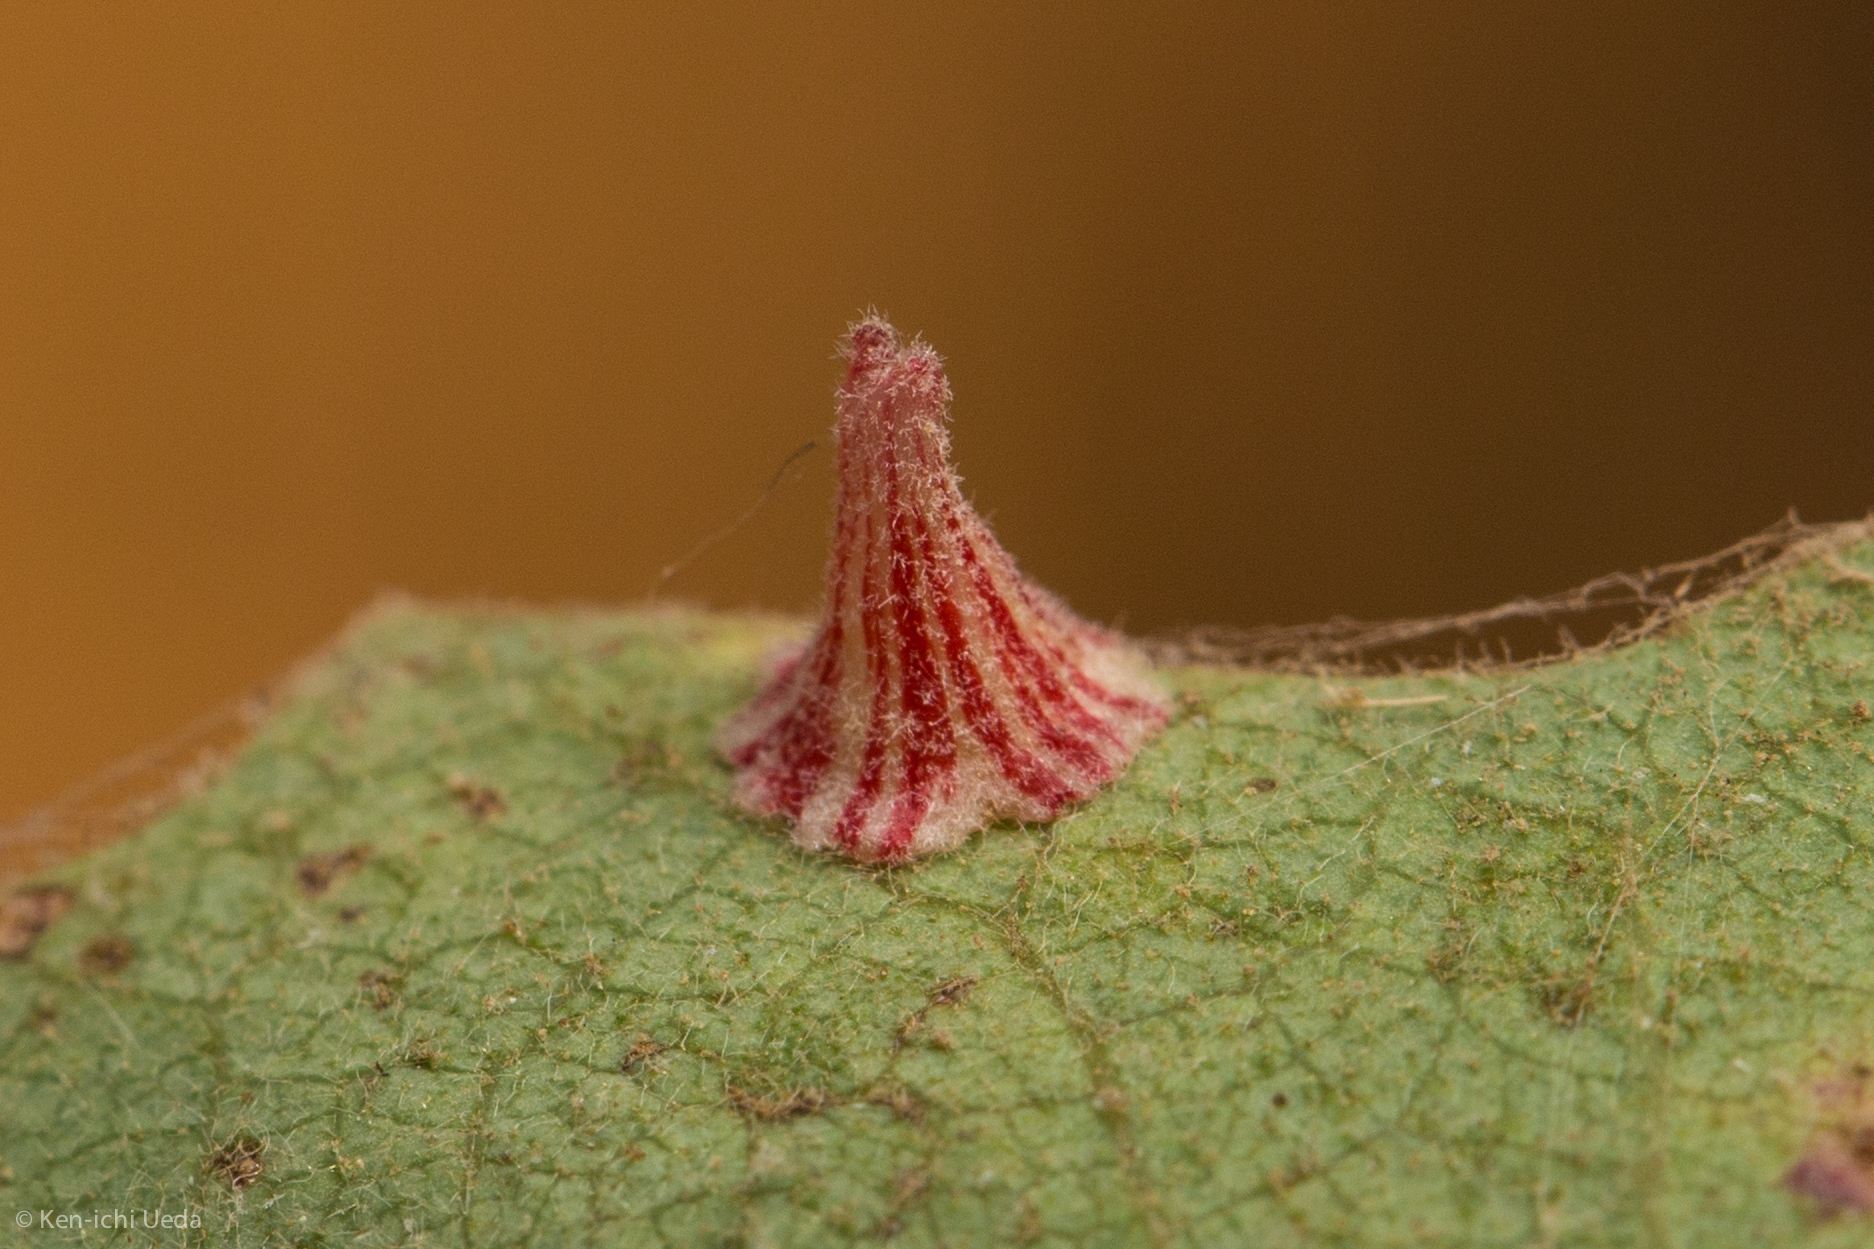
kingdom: Animalia
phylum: Arthropoda
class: Insecta
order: Hymenoptera
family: Cynipidae
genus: Andricus
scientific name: Andricus
